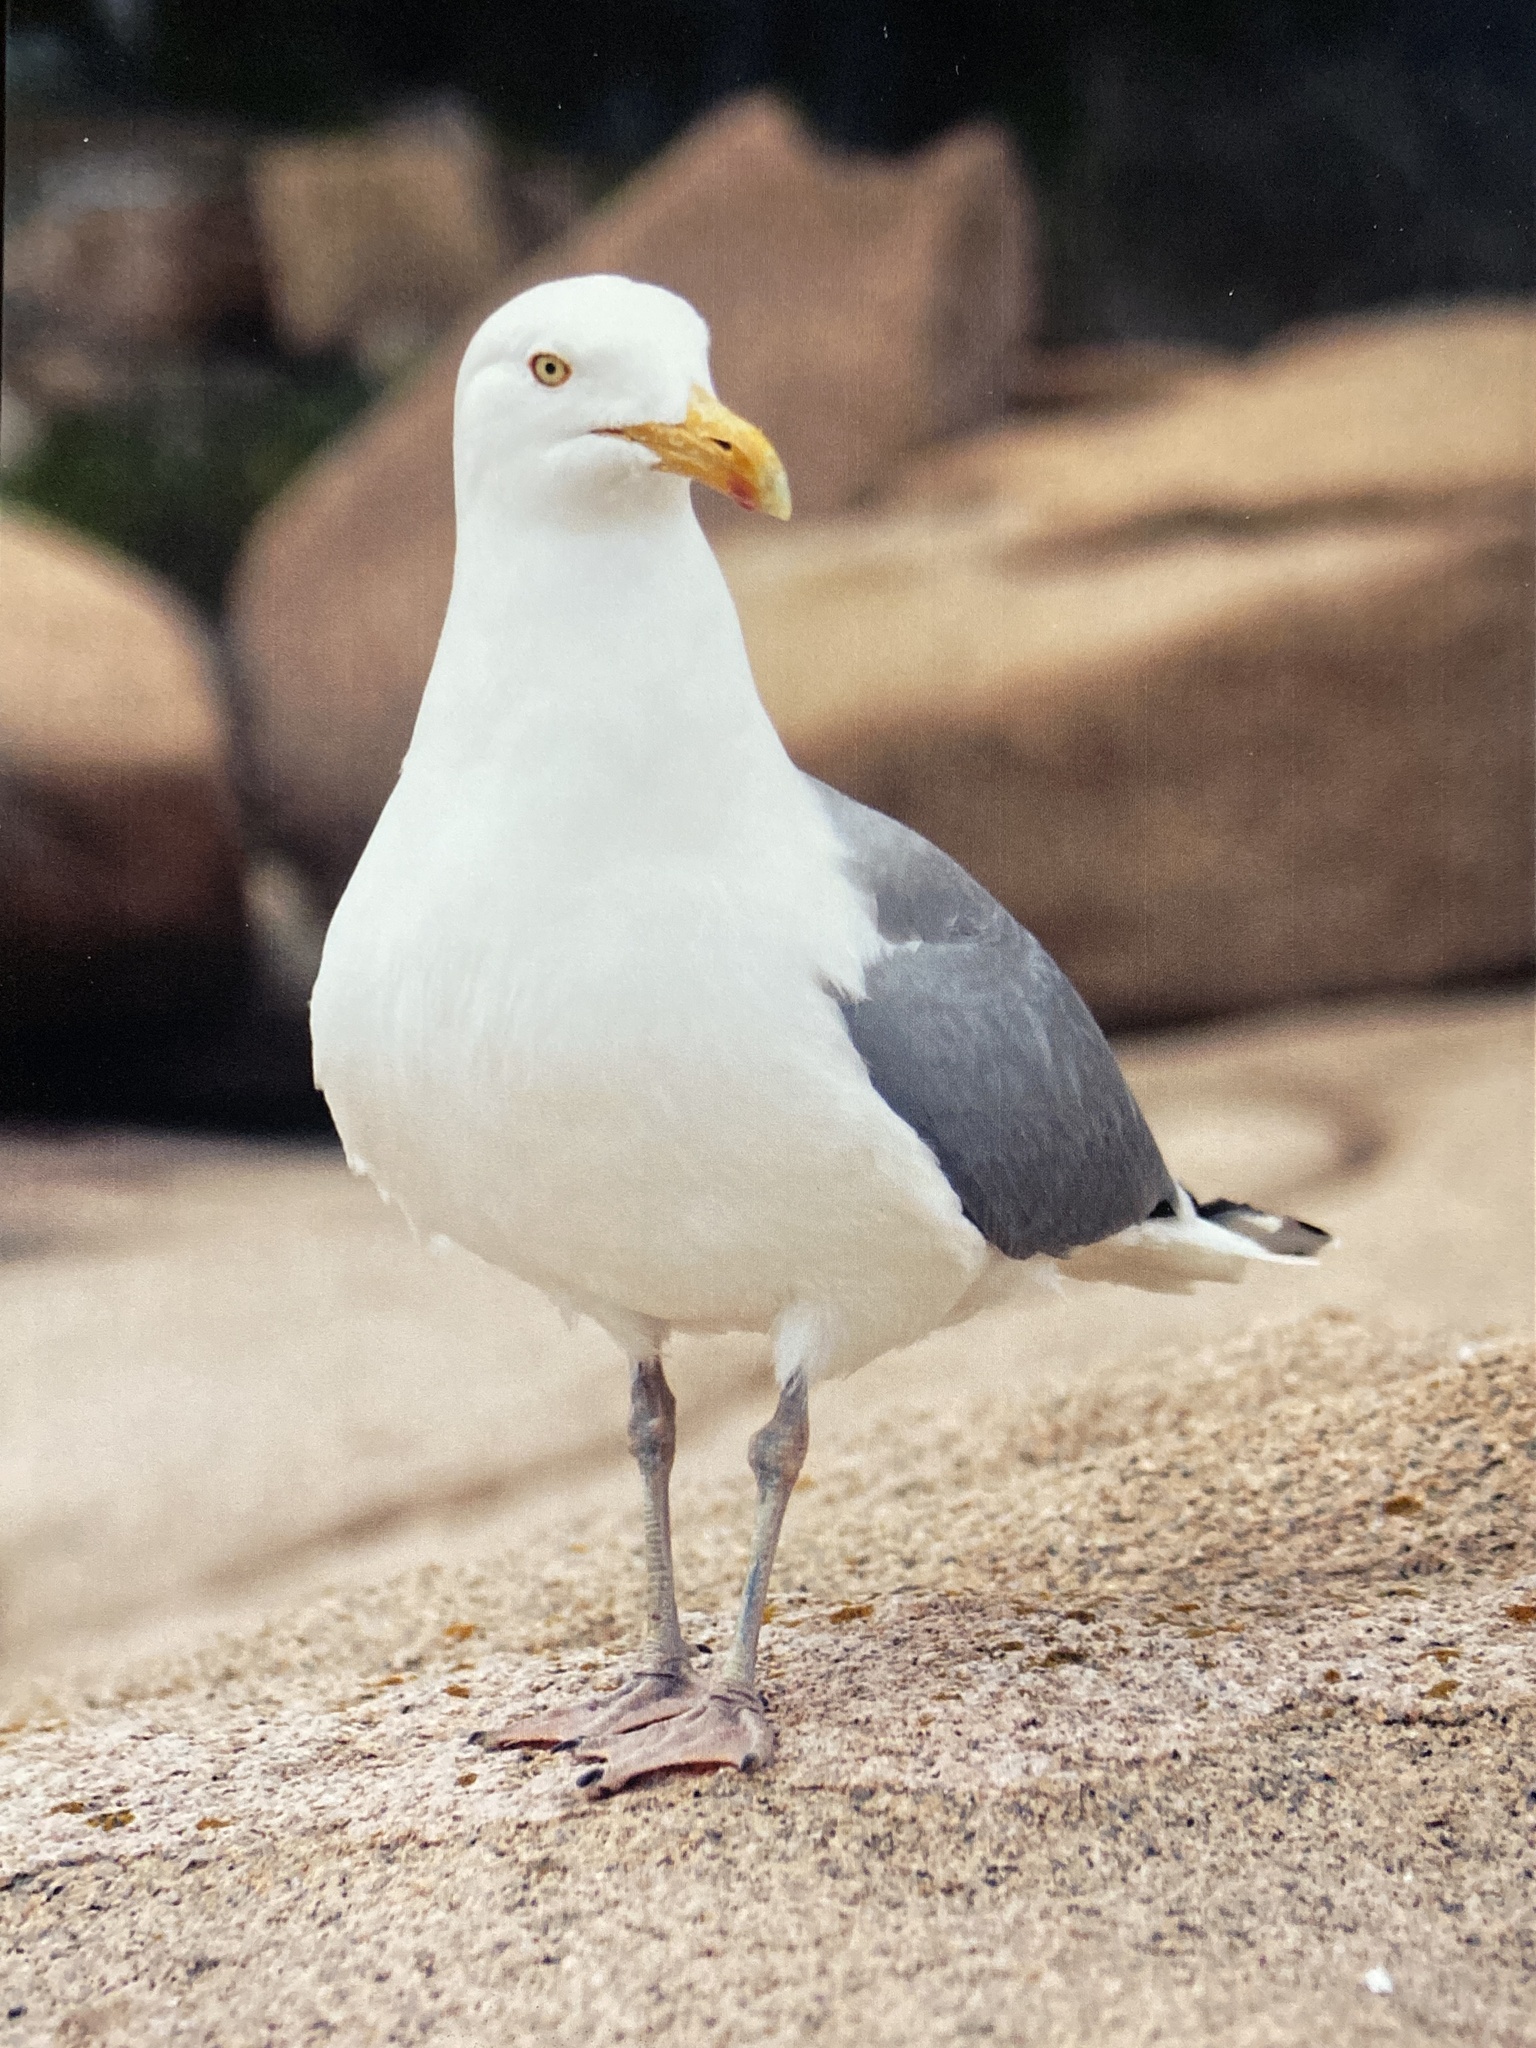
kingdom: Animalia
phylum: Chordata
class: Aves
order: Charadriiformes
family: Laridae
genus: Larus
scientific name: Larus smithsonianus
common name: American herring gull
